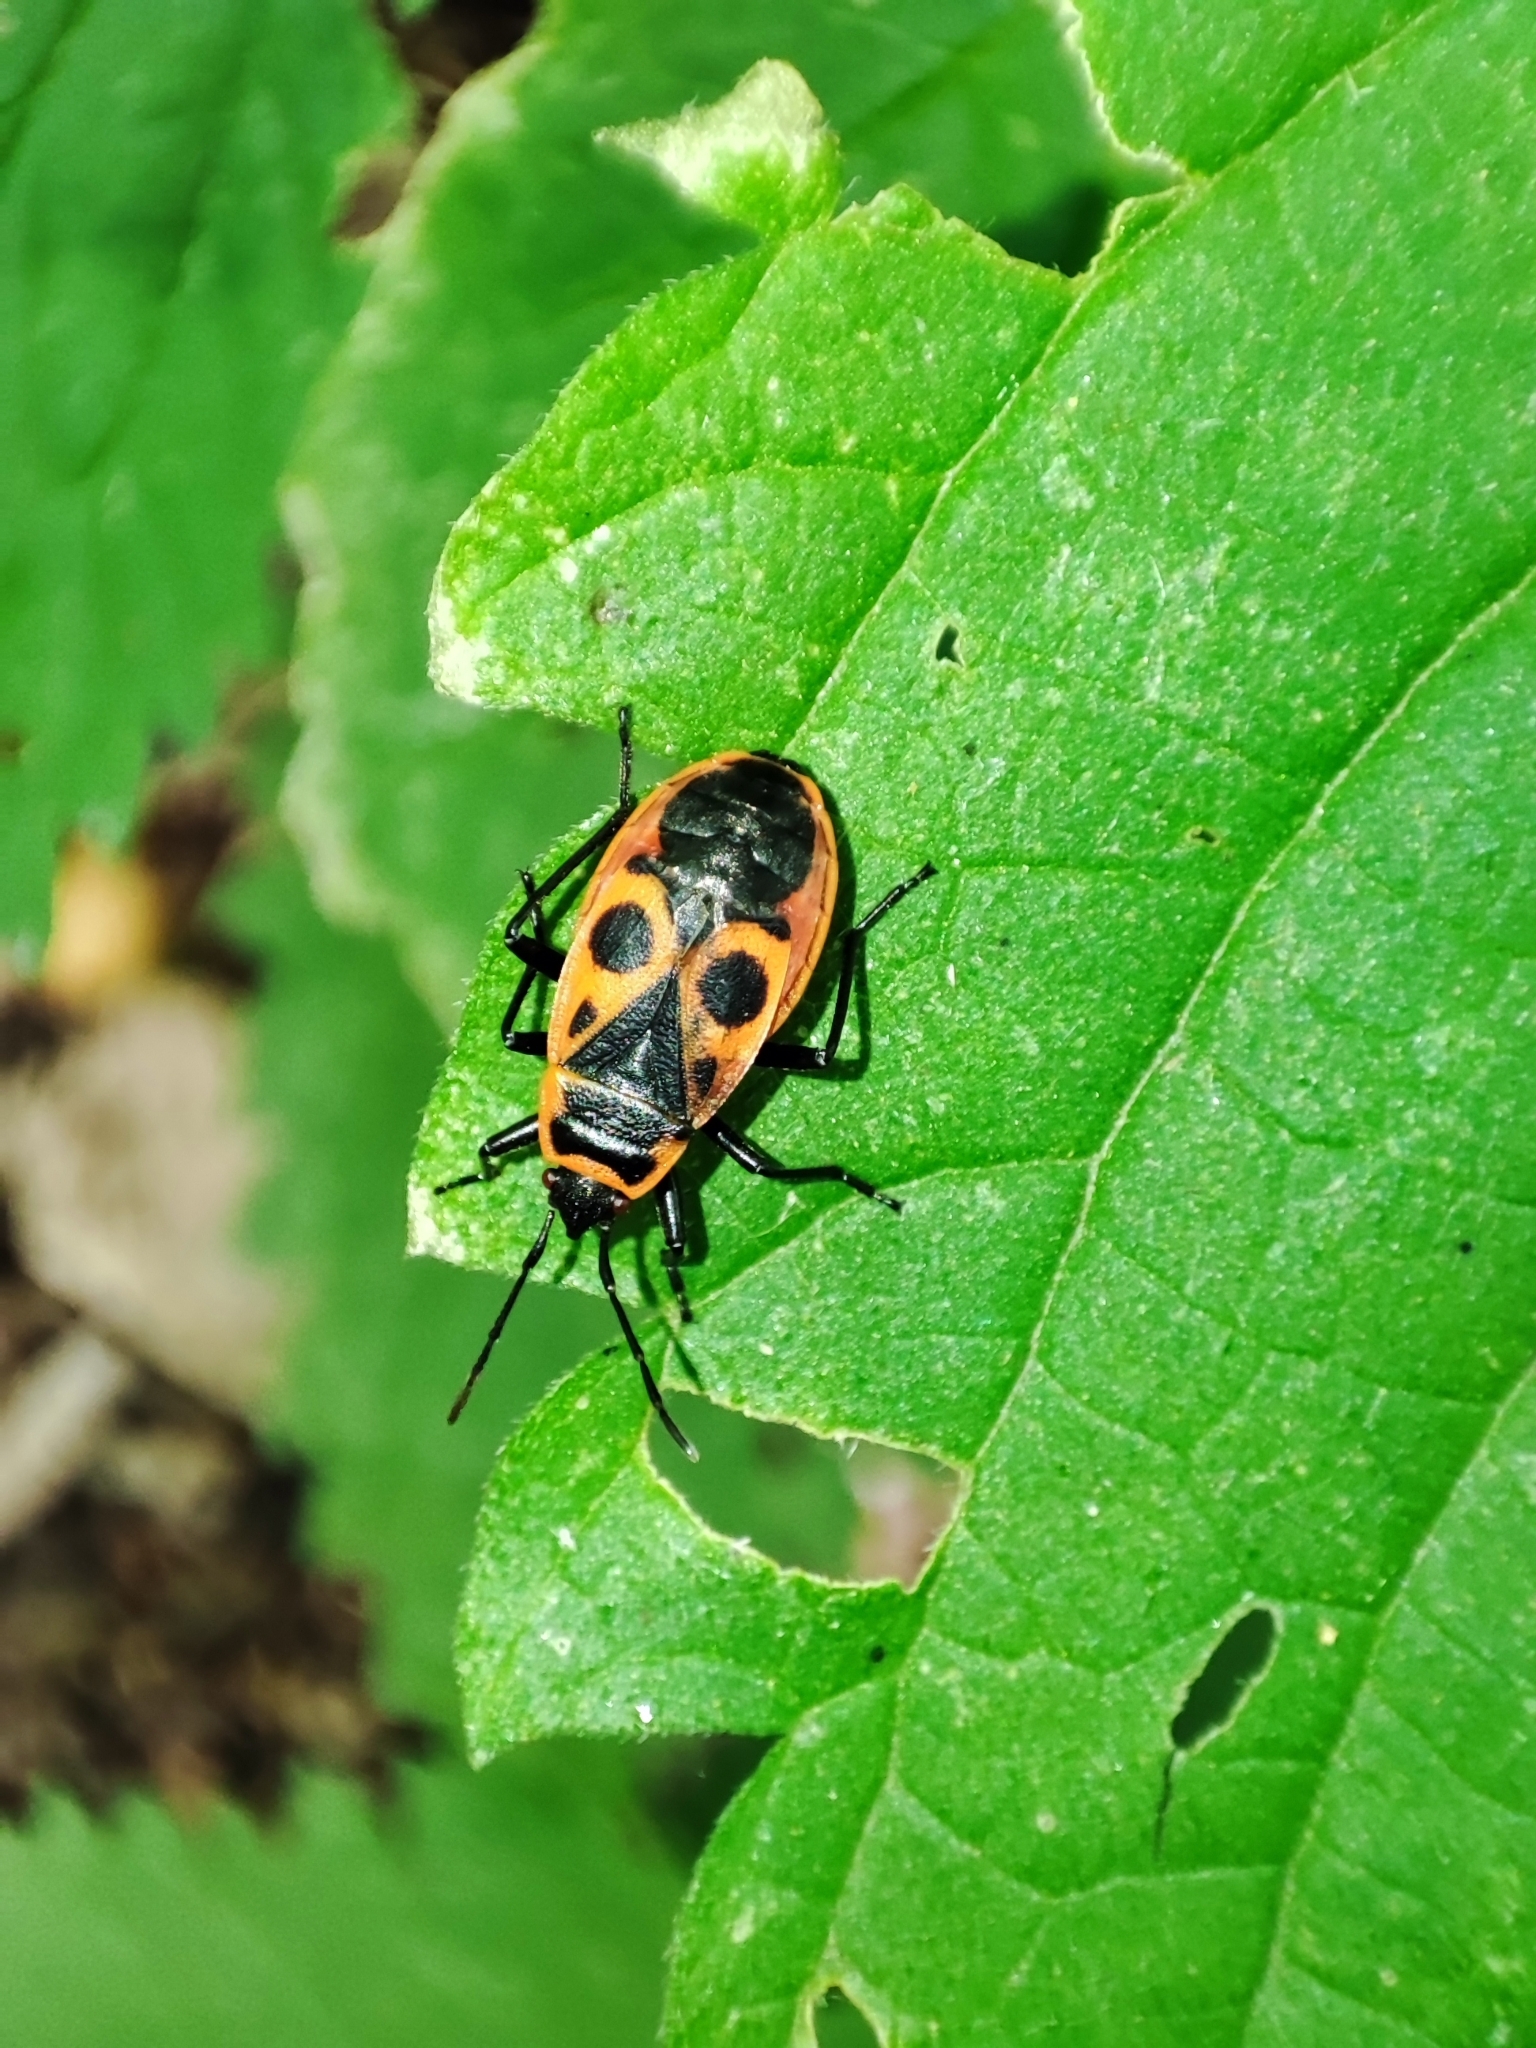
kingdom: Animalia
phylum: Arthropoda
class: Insecta
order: Hemiptera
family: Pyrrhocoridae
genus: Pyrrhocoris
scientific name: Pyrrhocoris apterus
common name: Firebug
